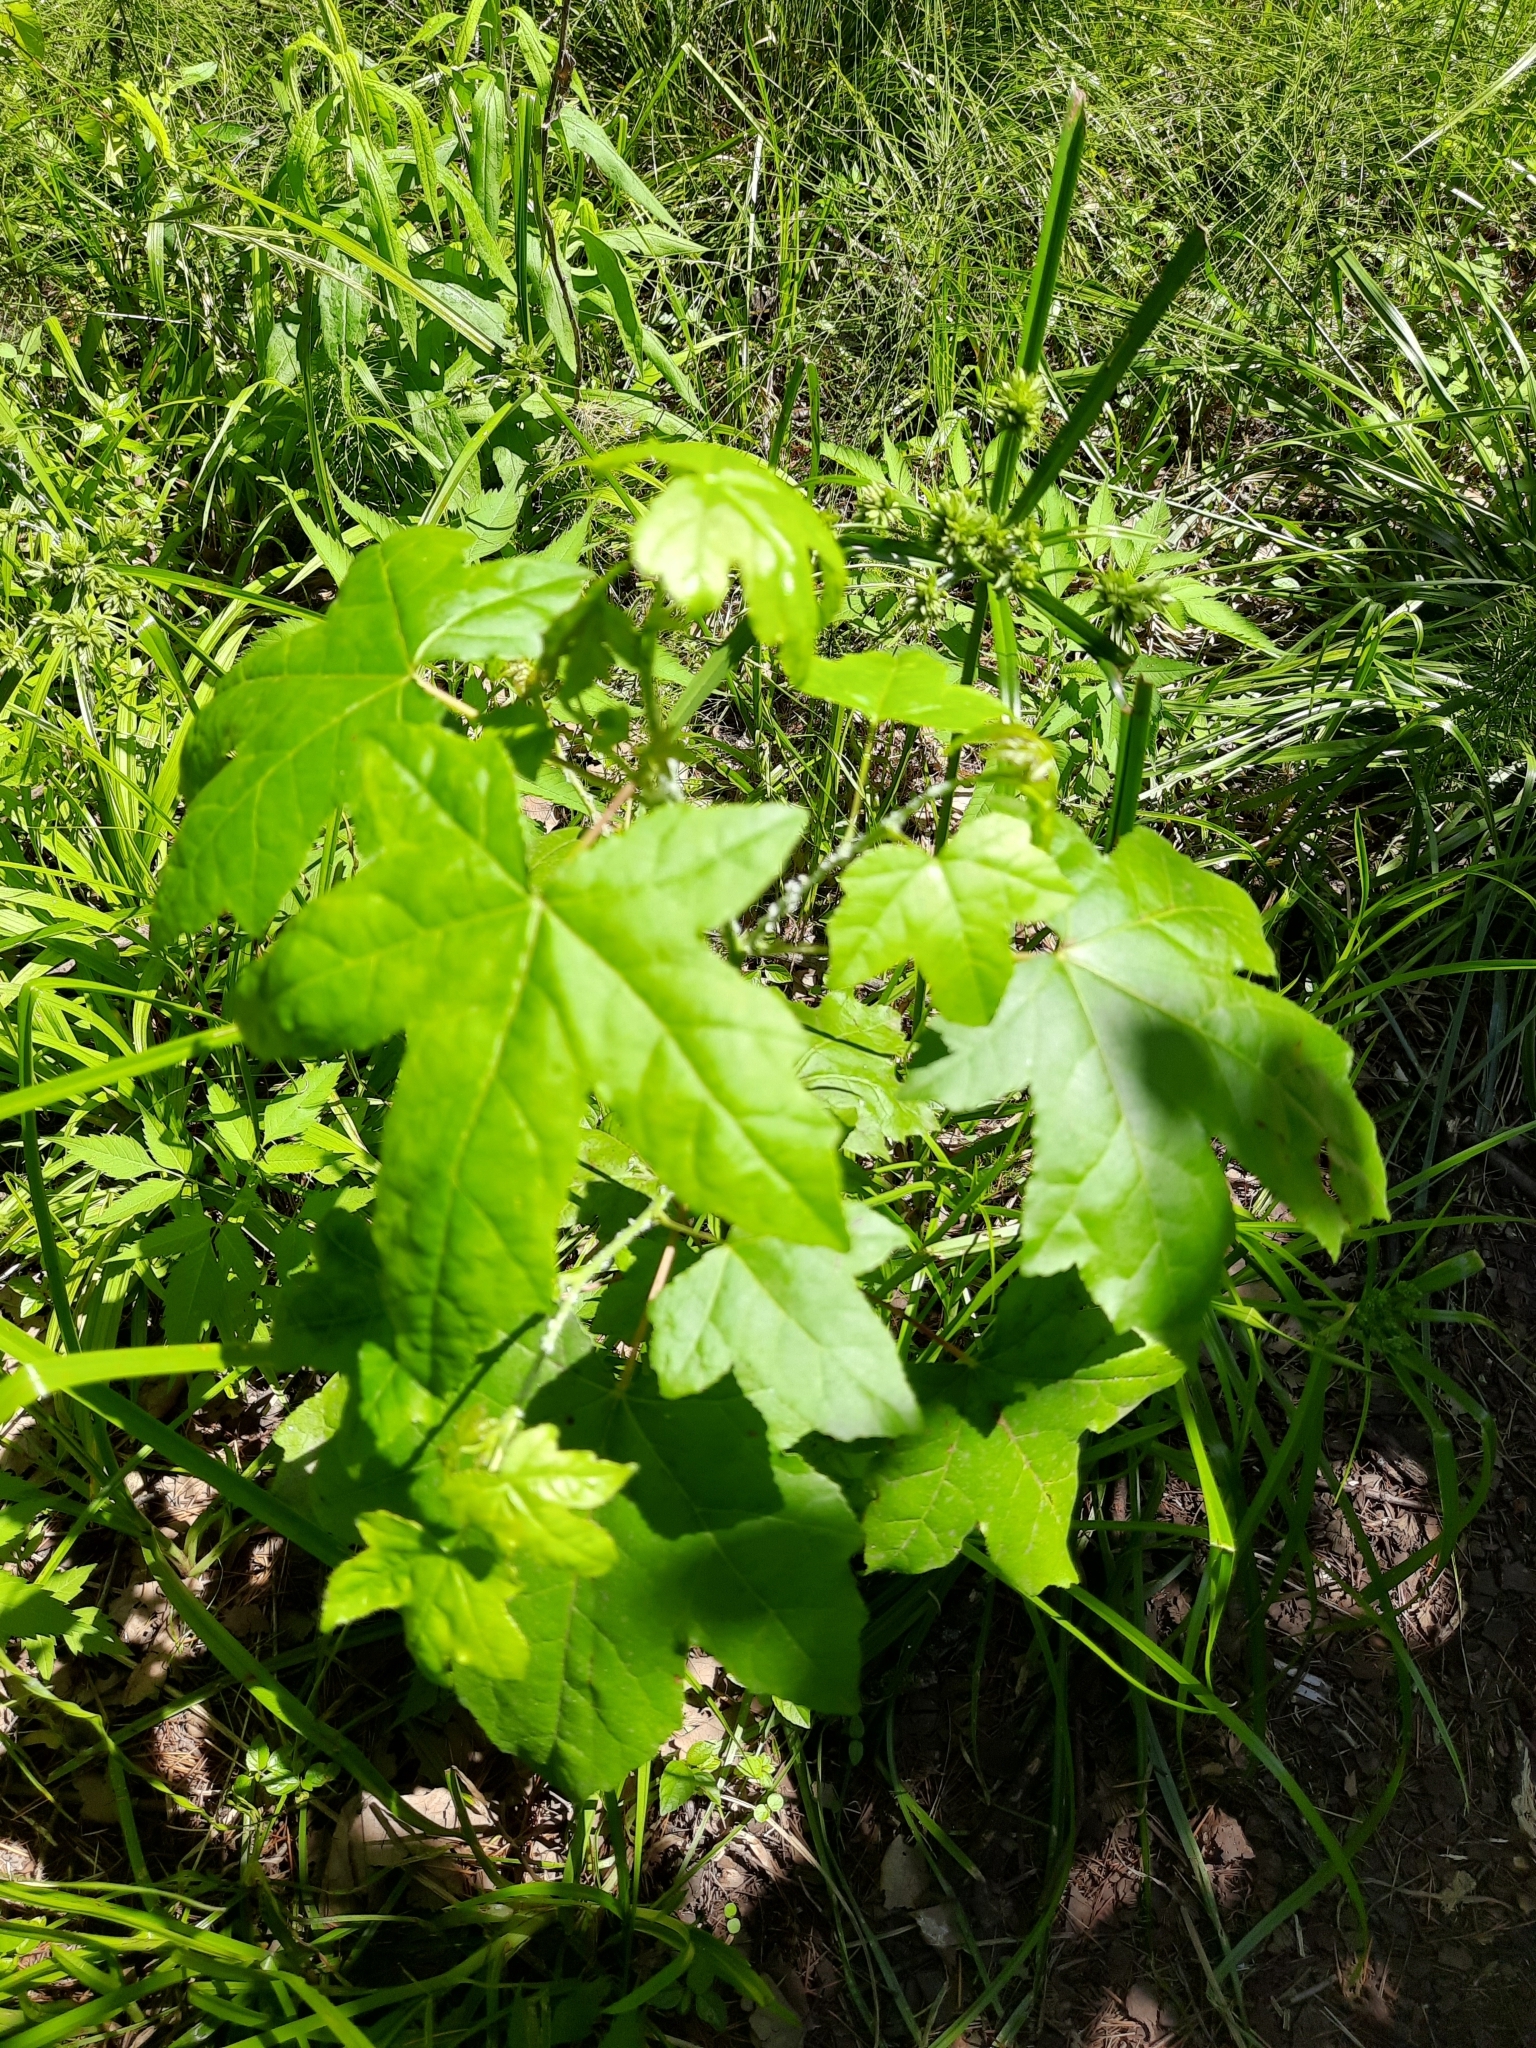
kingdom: Plantae
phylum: Tracheophyta
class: Magnoliopsida
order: Sapindales
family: Sapindaceae
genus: Acer
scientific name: Acer campestre
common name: Field maple
